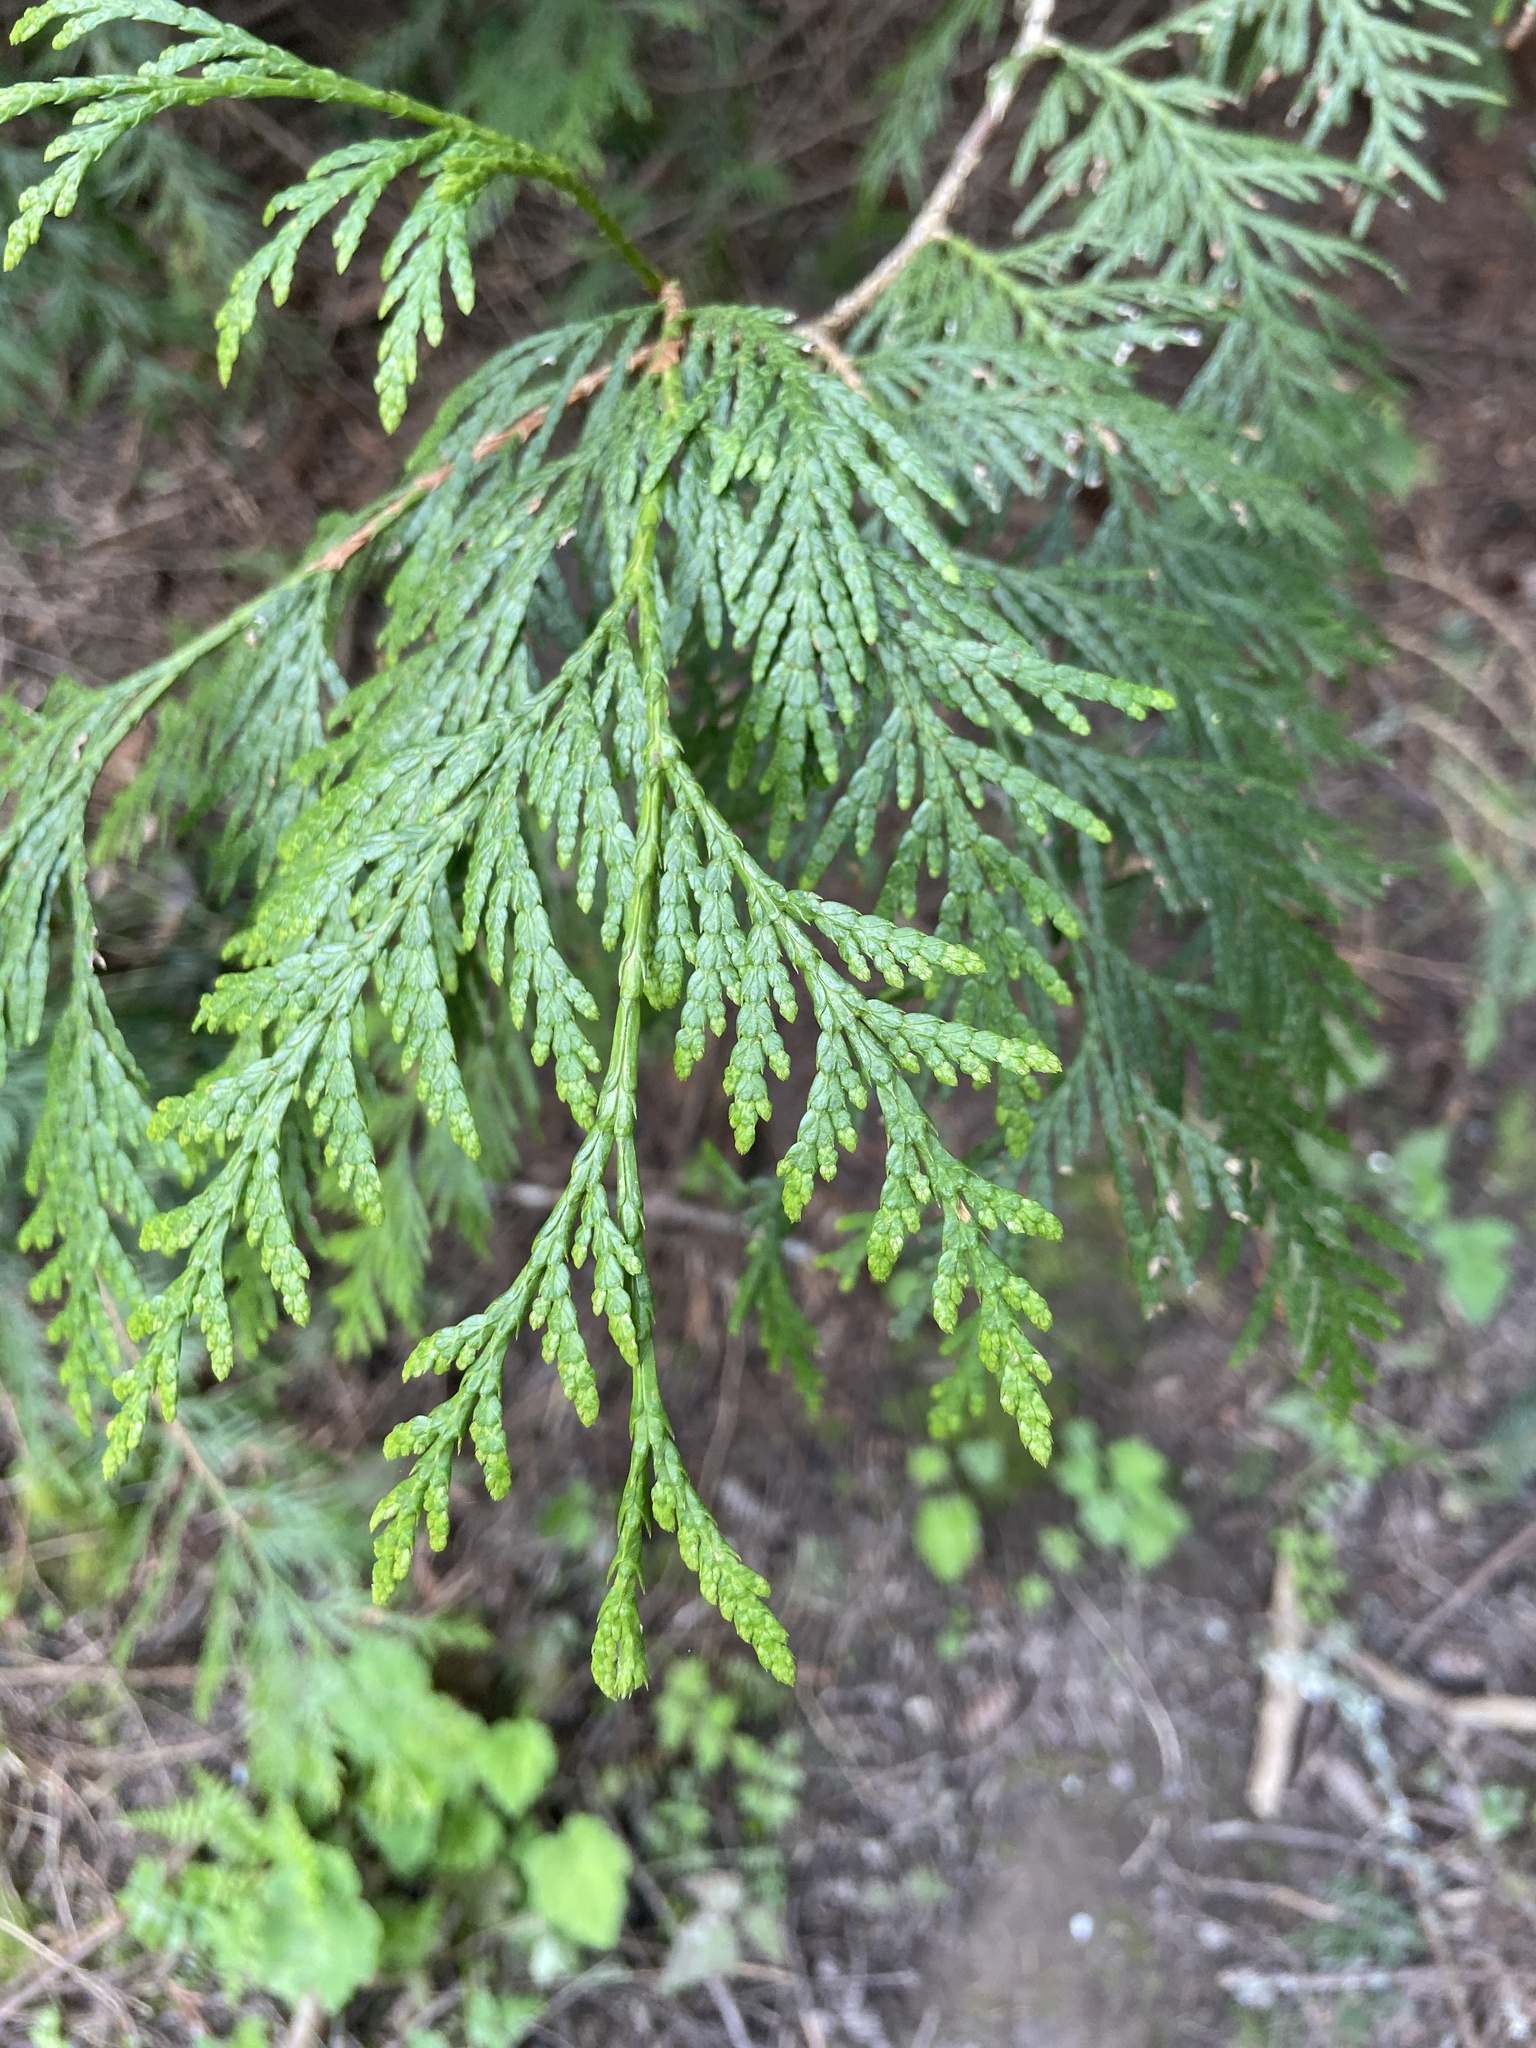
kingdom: Plantae
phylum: Tracheophyta
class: Pinopsida
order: Pinales
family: Cupressaceae
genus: Thuja
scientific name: Thuja plicata
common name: Western red-cedar
